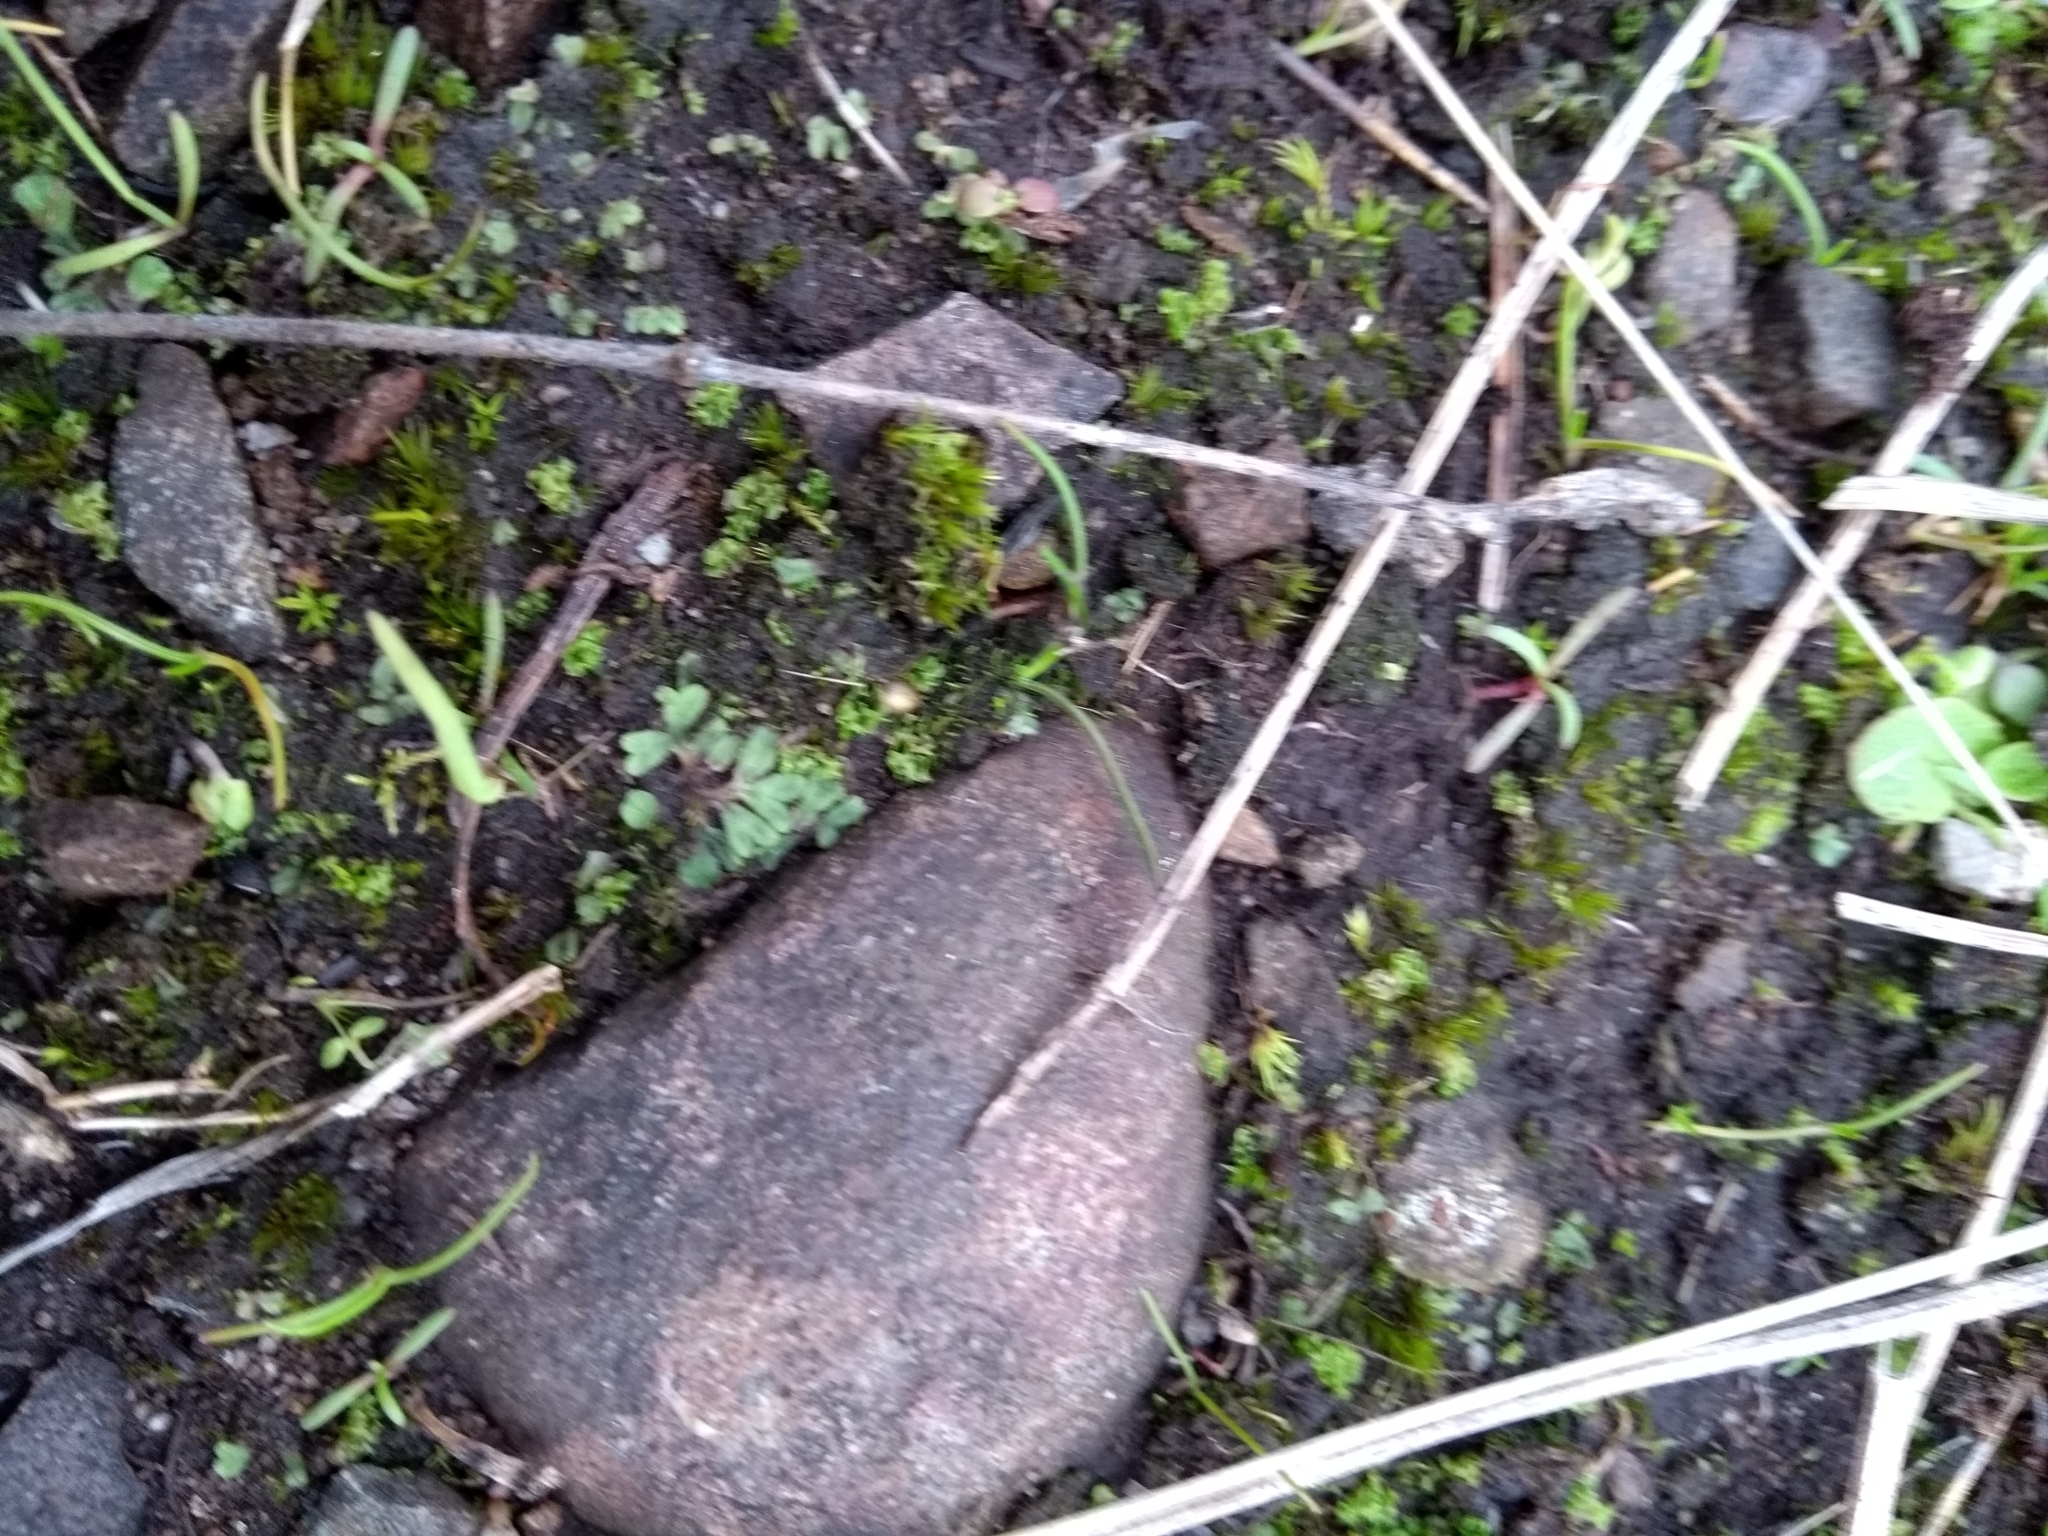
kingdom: Plantae
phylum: Marchantiophyta
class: Marchantiopsida
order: Marchantiales
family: Ricciaceae
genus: Riccia
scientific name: Riccia sorocarpa
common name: Common crystalwort
